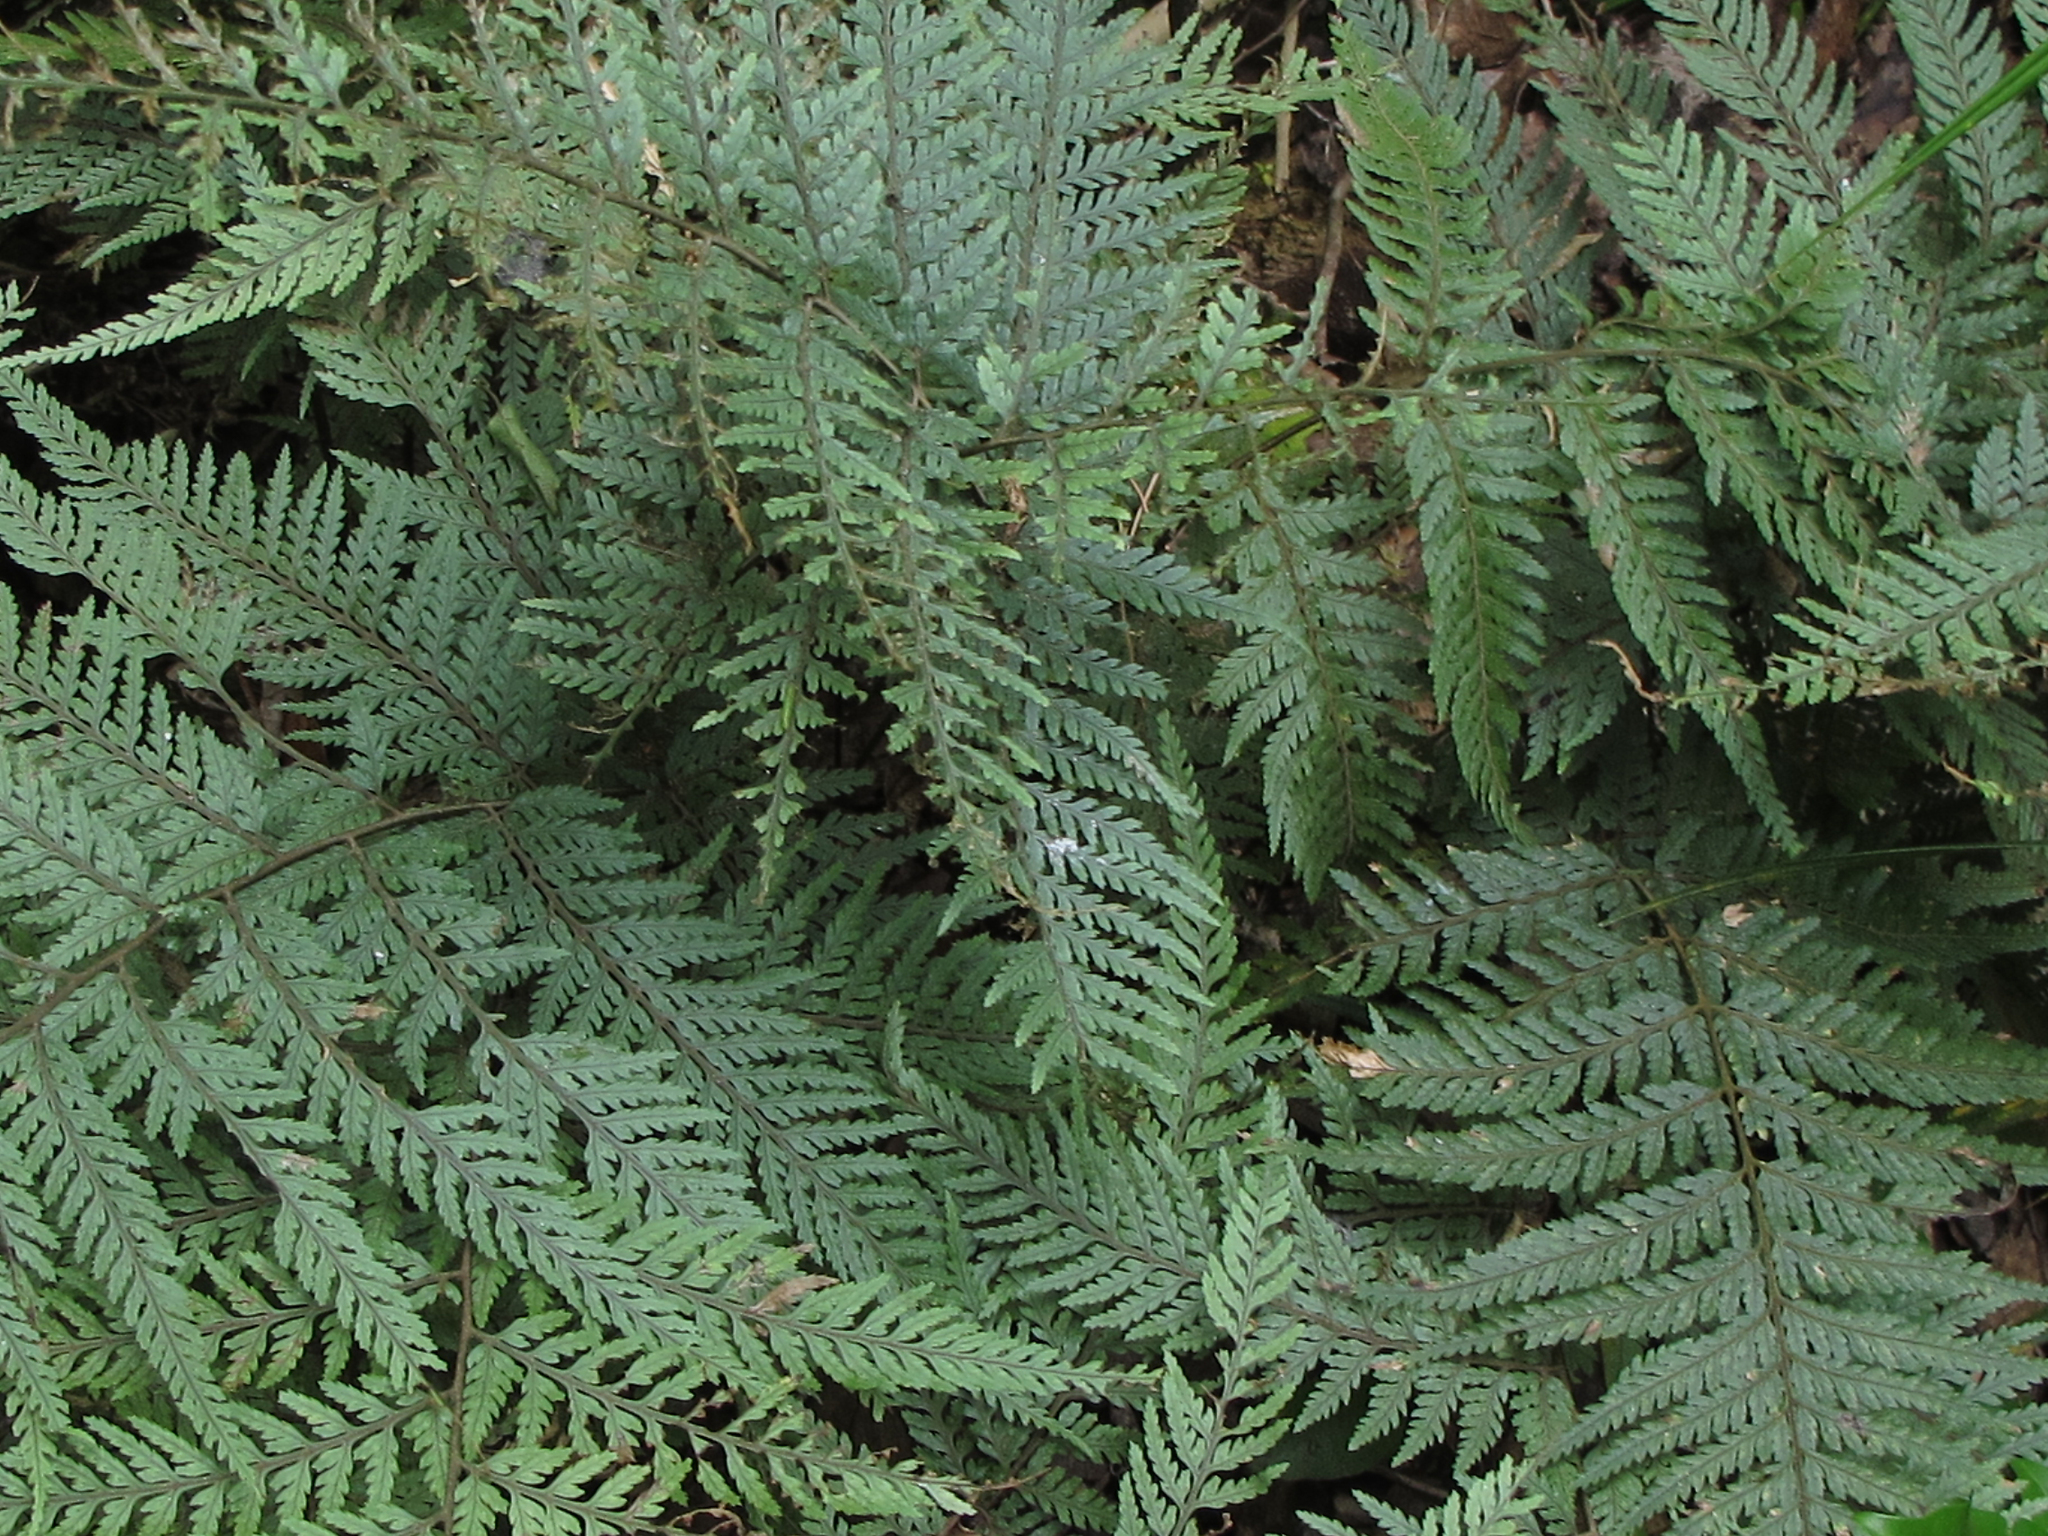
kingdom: Plantae
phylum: Tracheophyta
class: Polypodiopsida
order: Polypodiales
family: Dryopteridaceae
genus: Parapolystichum
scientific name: Parapolystichum glabellum
